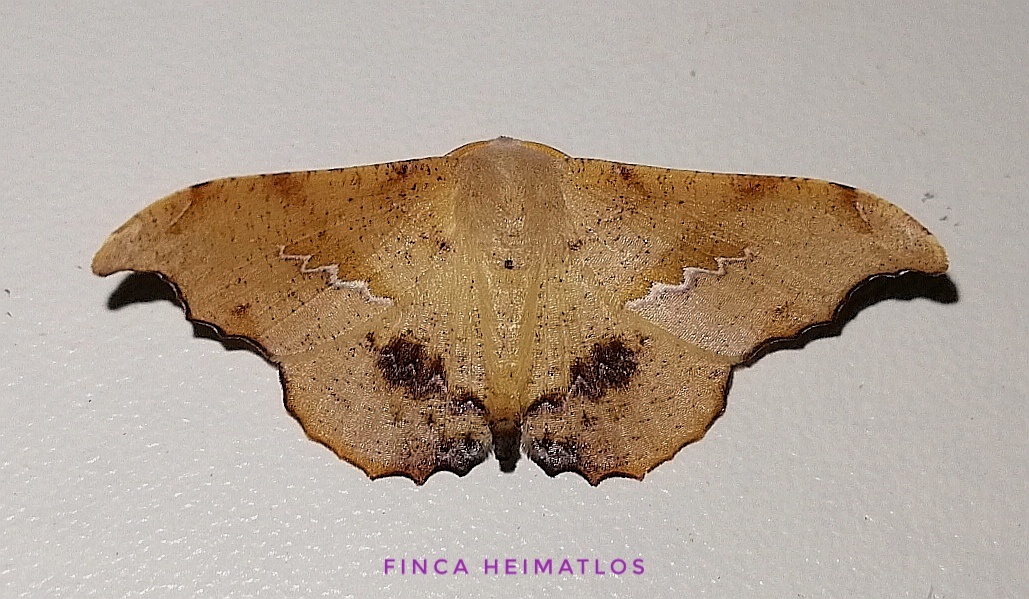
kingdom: Animalia
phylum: Arthropoda
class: Insecta
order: Lepidoptera
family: Geometridae
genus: Patalene
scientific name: Patalene asychisaria
